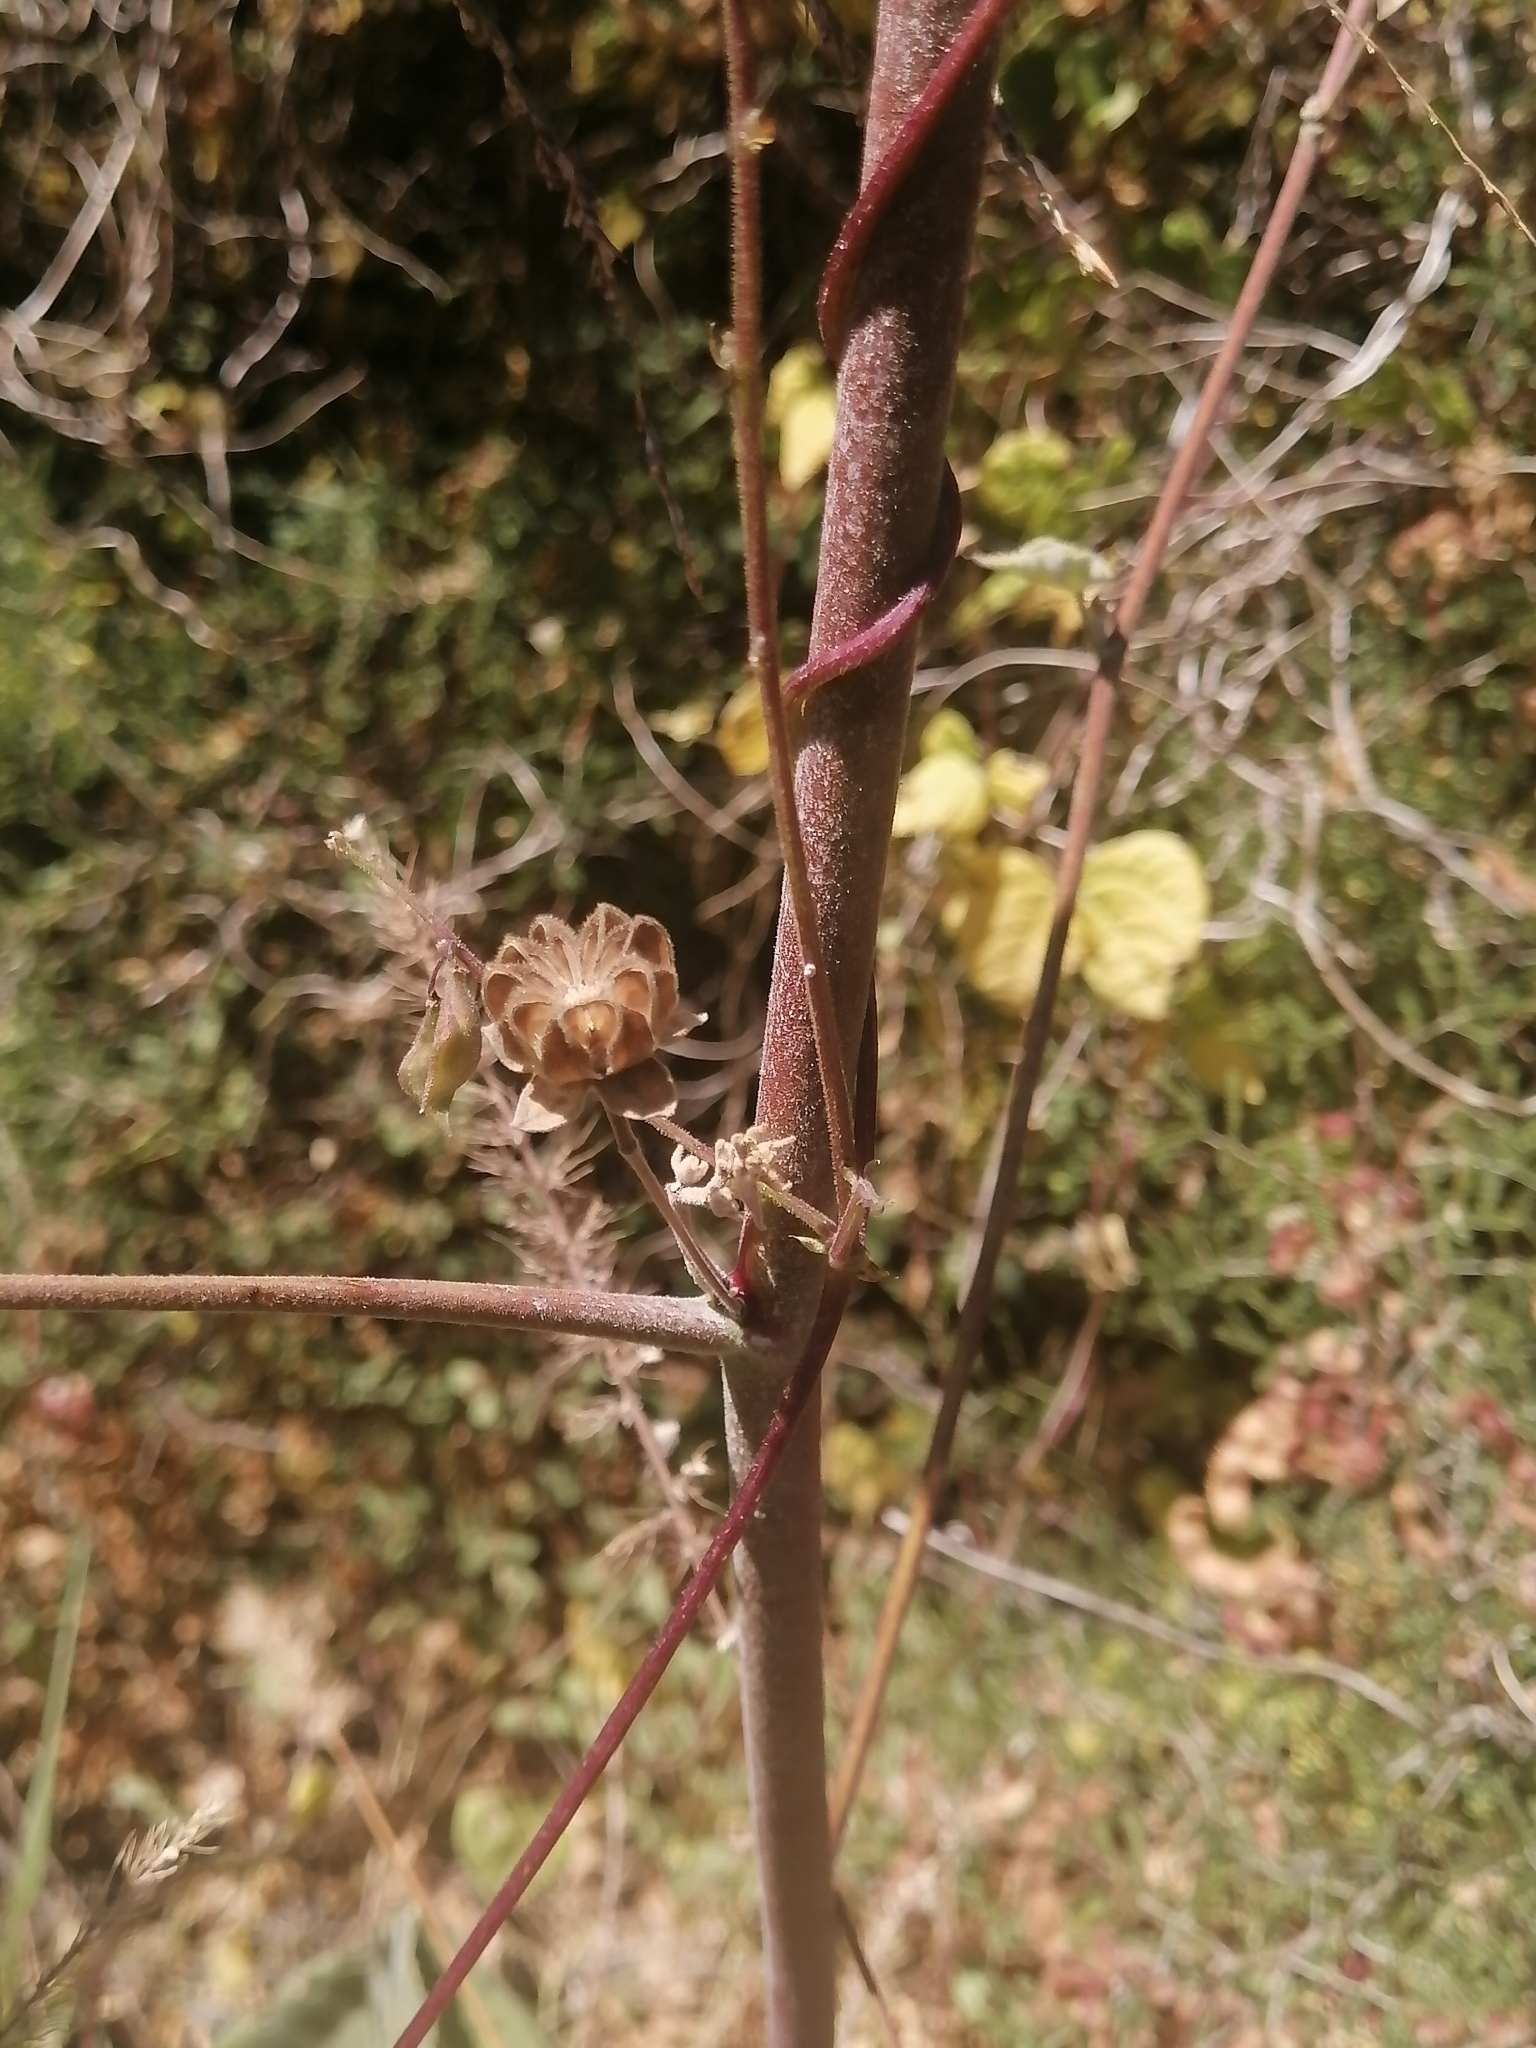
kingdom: Plantae
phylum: Tracheophyta
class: Magnoliopsida
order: Malvales
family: Malvaceae
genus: Abutilon
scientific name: Abutilon reventum
